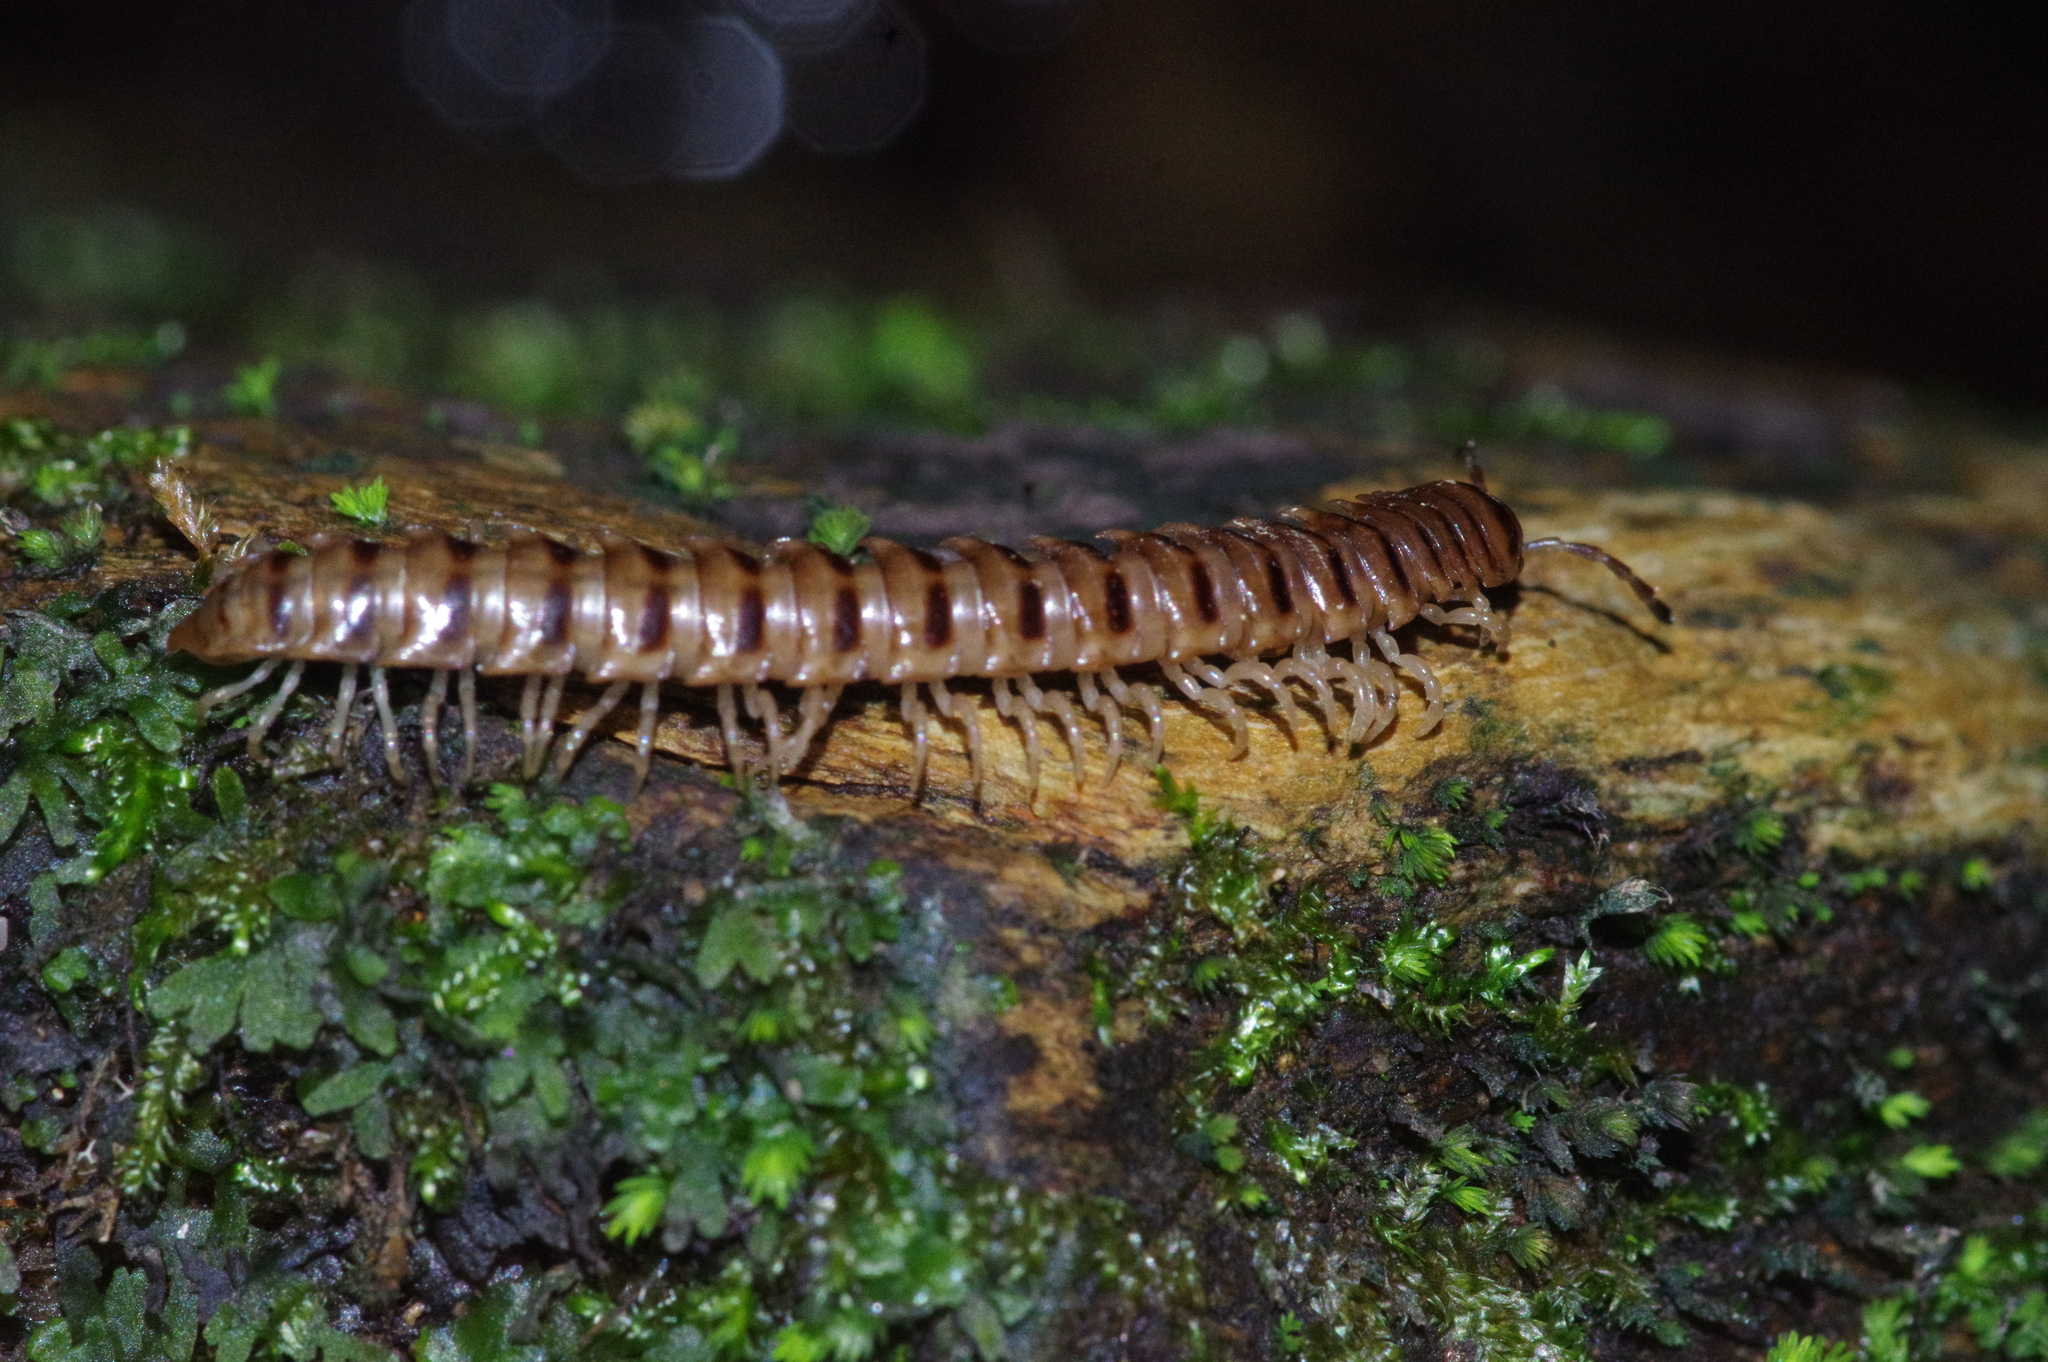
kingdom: Animalia
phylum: Arthropoda
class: Diplopoda
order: Polydesmida
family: Paradoxosomatidae
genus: Chamberlinius
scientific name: Chamberlinius hualienensis
